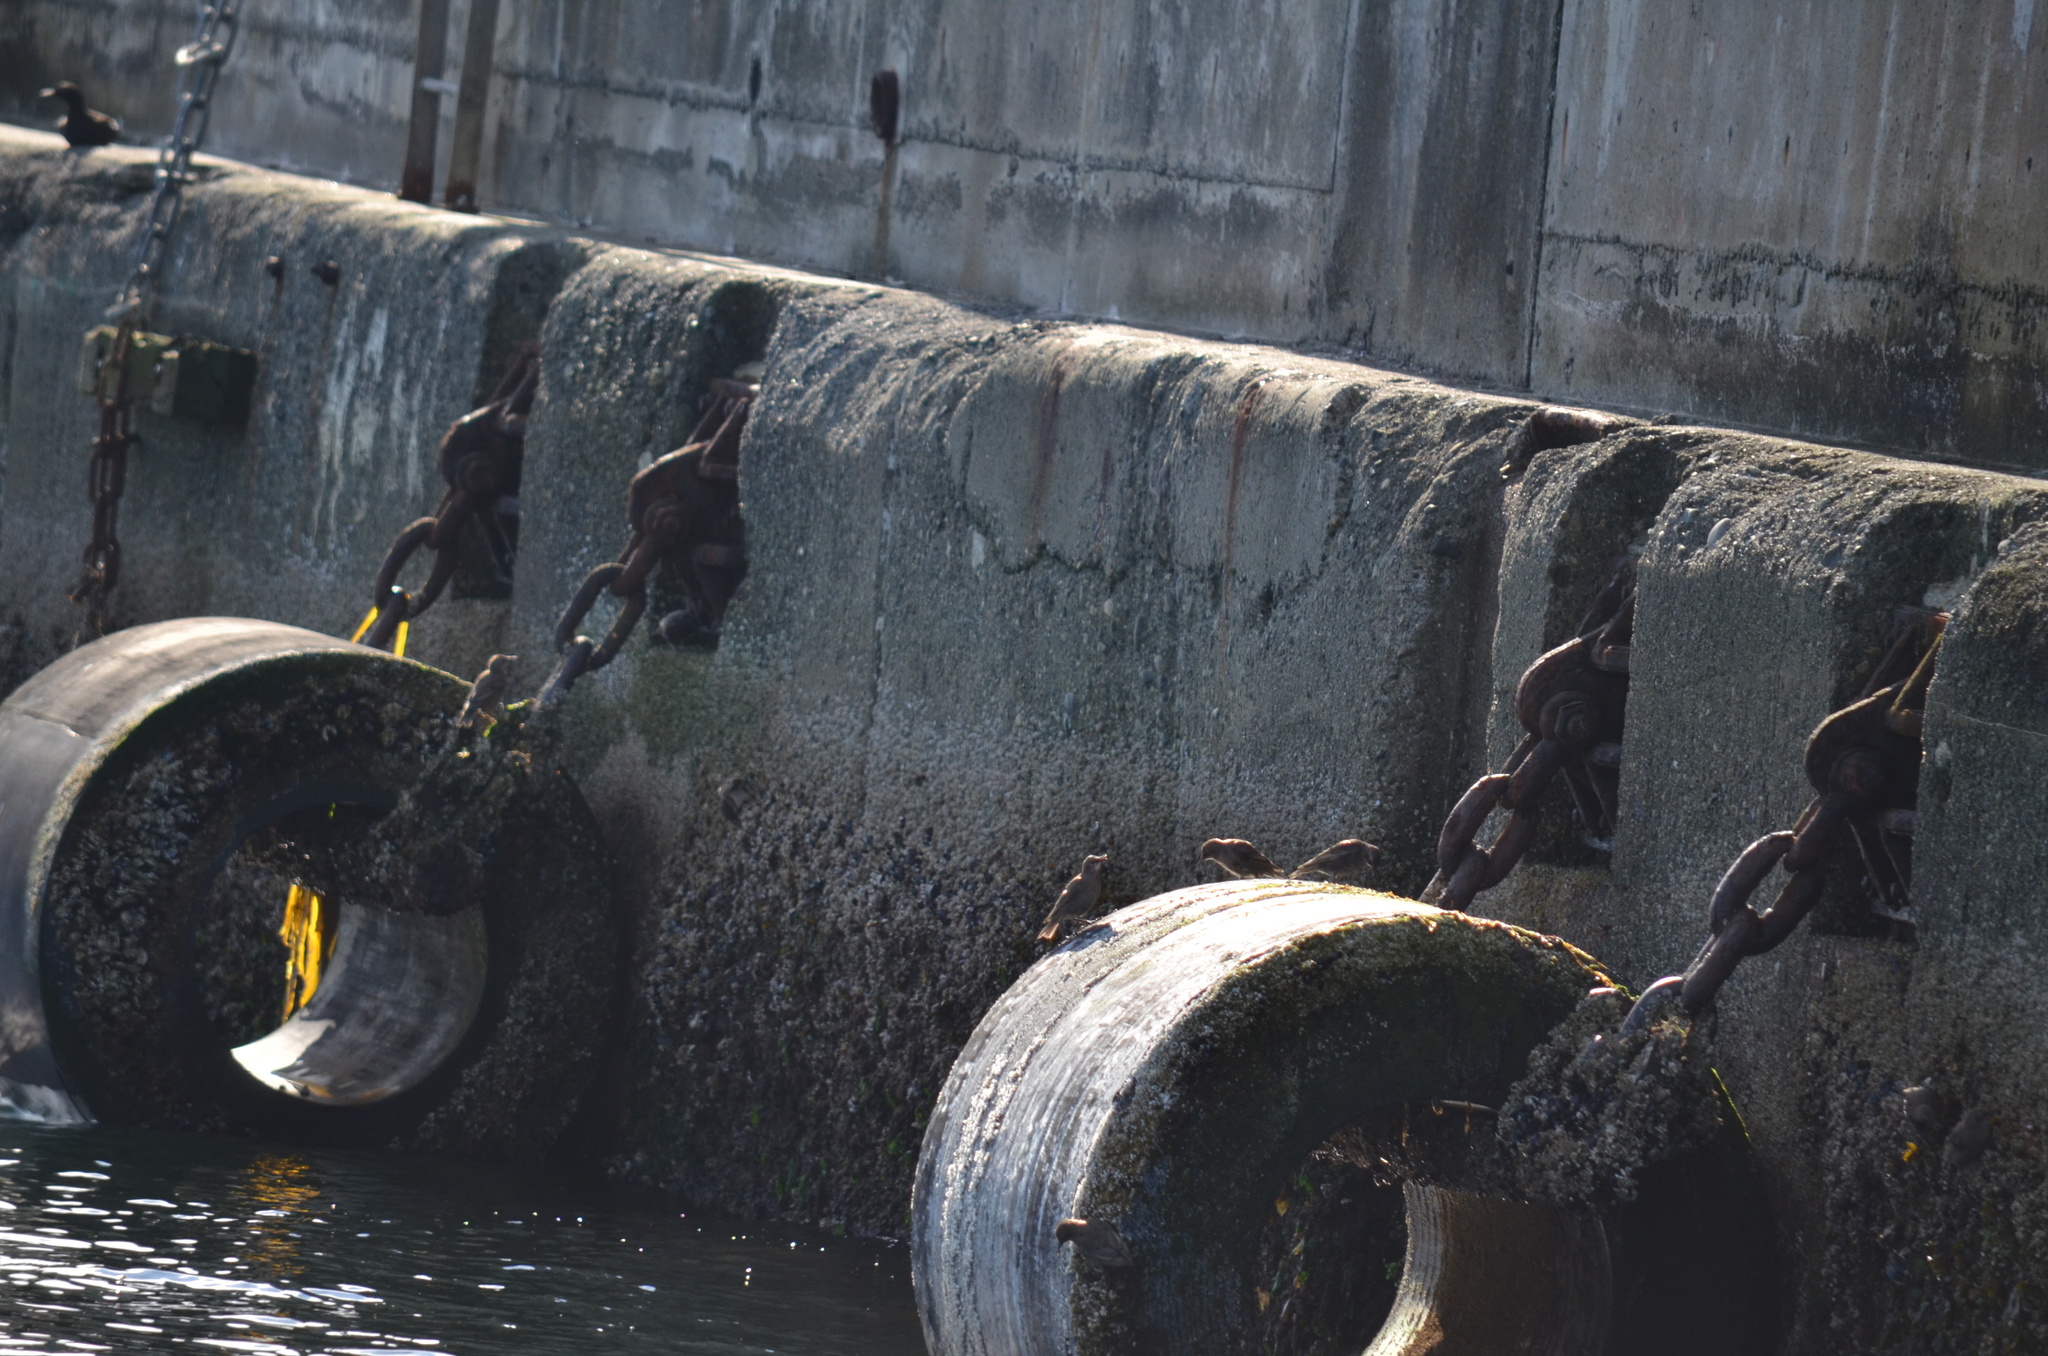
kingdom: Animalia
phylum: Chordata
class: Aves
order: Charadriiformes
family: Alcidae
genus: Cepphus
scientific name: Cepphus columba
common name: Pigeon guillemot
